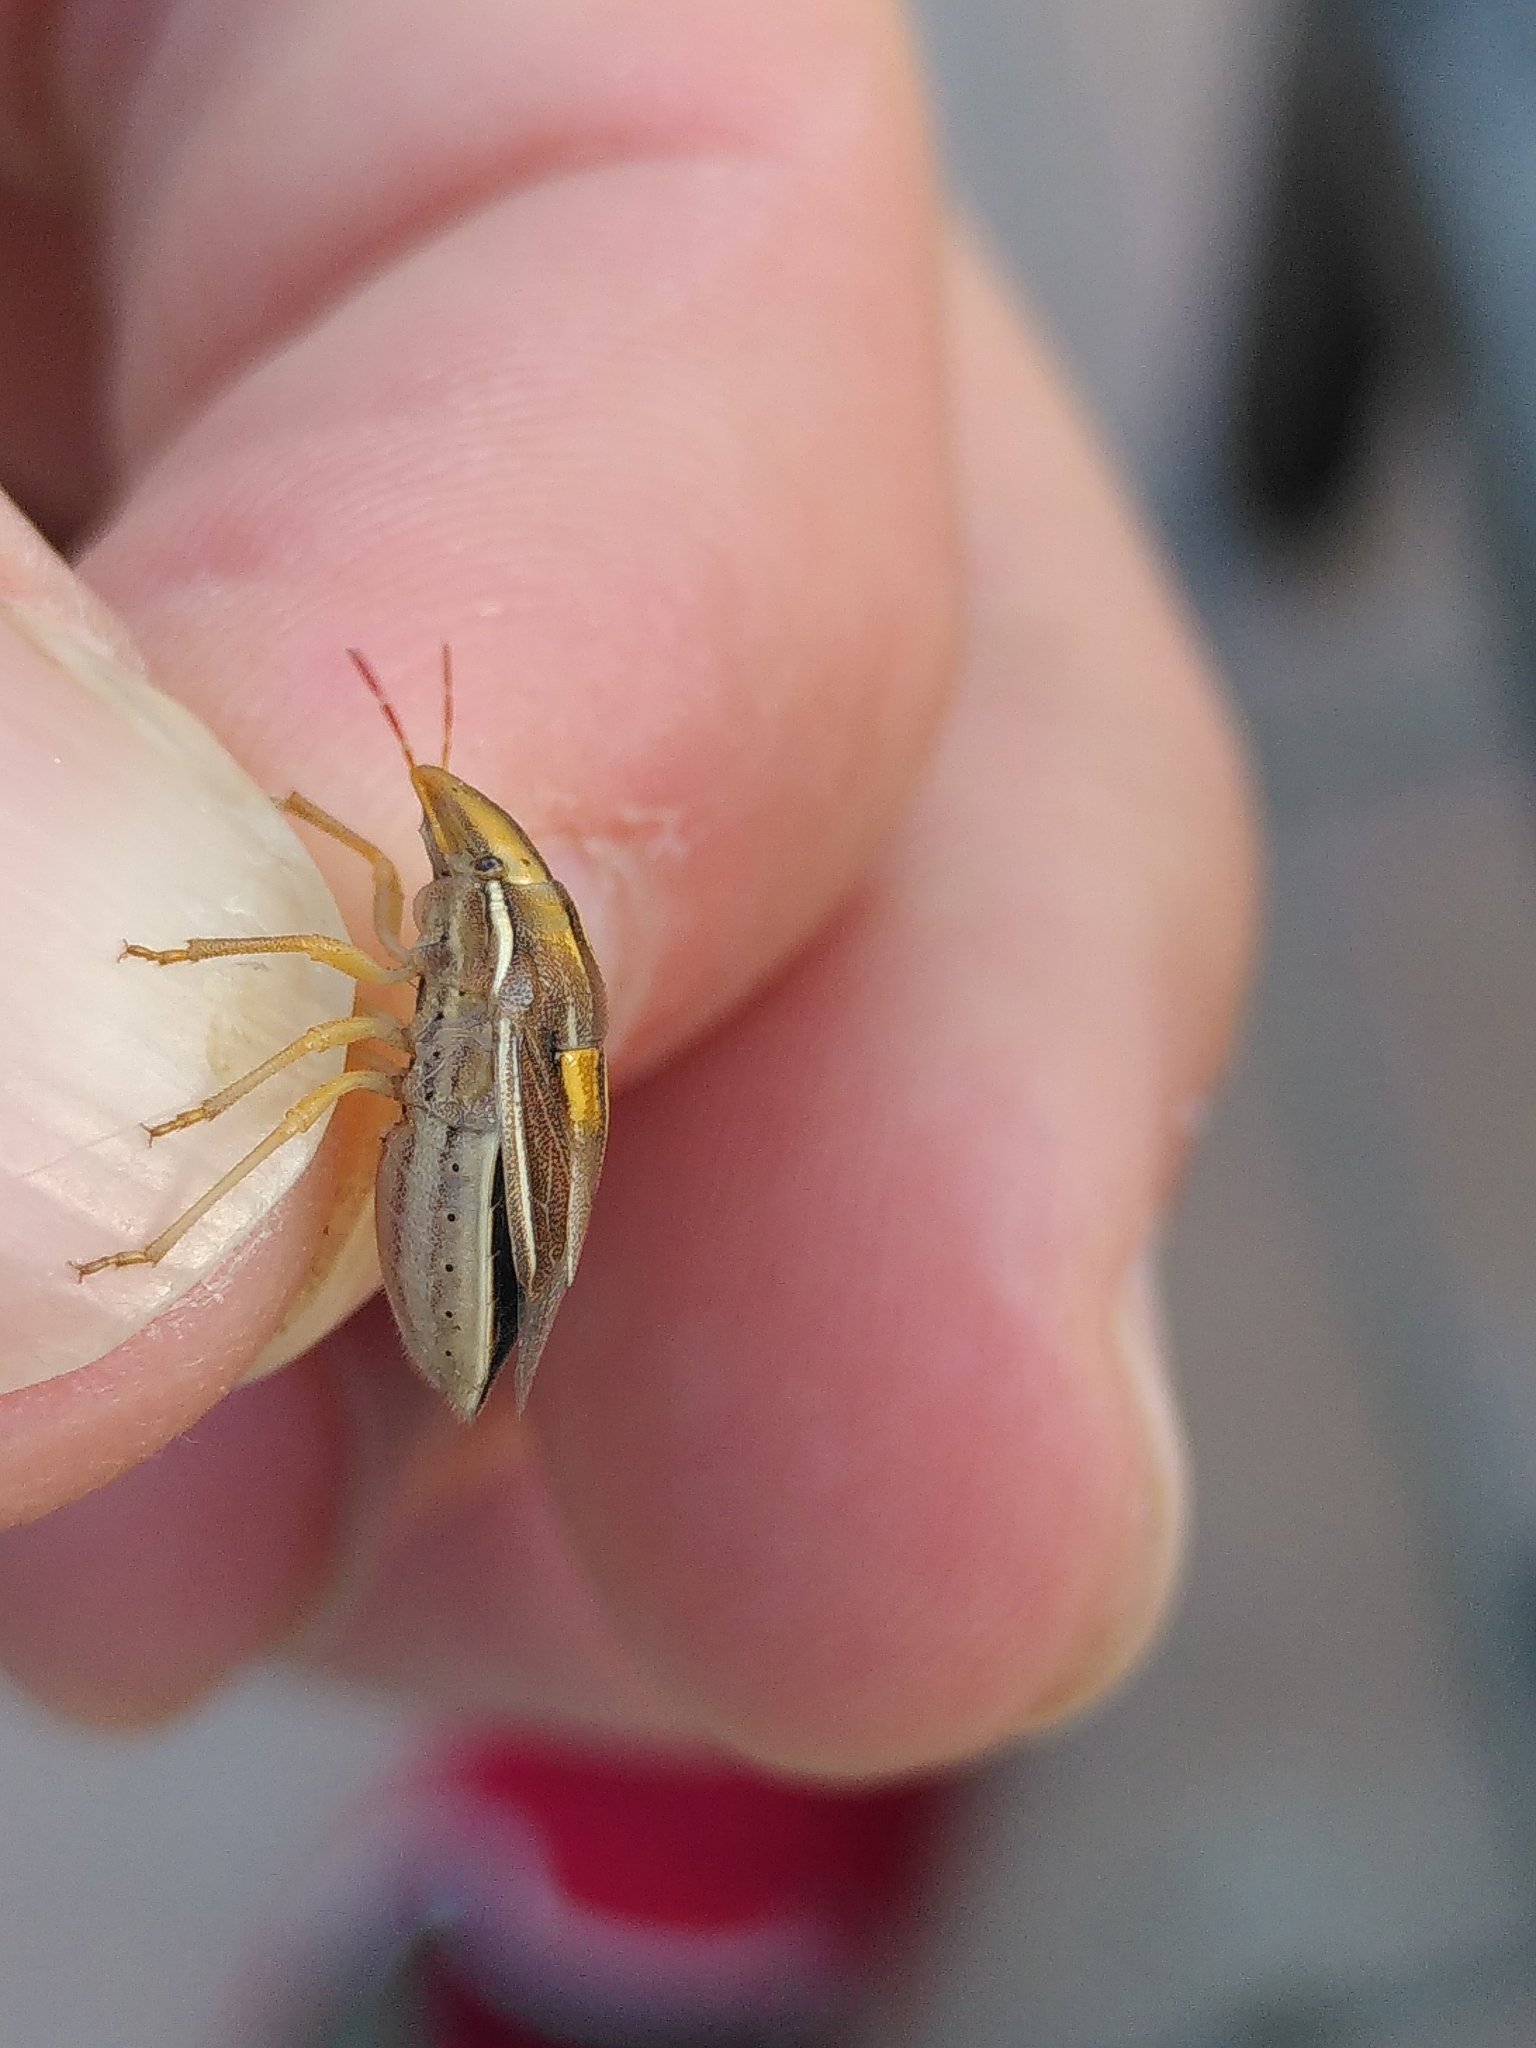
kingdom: Animalia
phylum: Arthropoda
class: Insecta
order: Hemiptera
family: Pentatomidae
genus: Aelia
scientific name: Aelia rostrata
